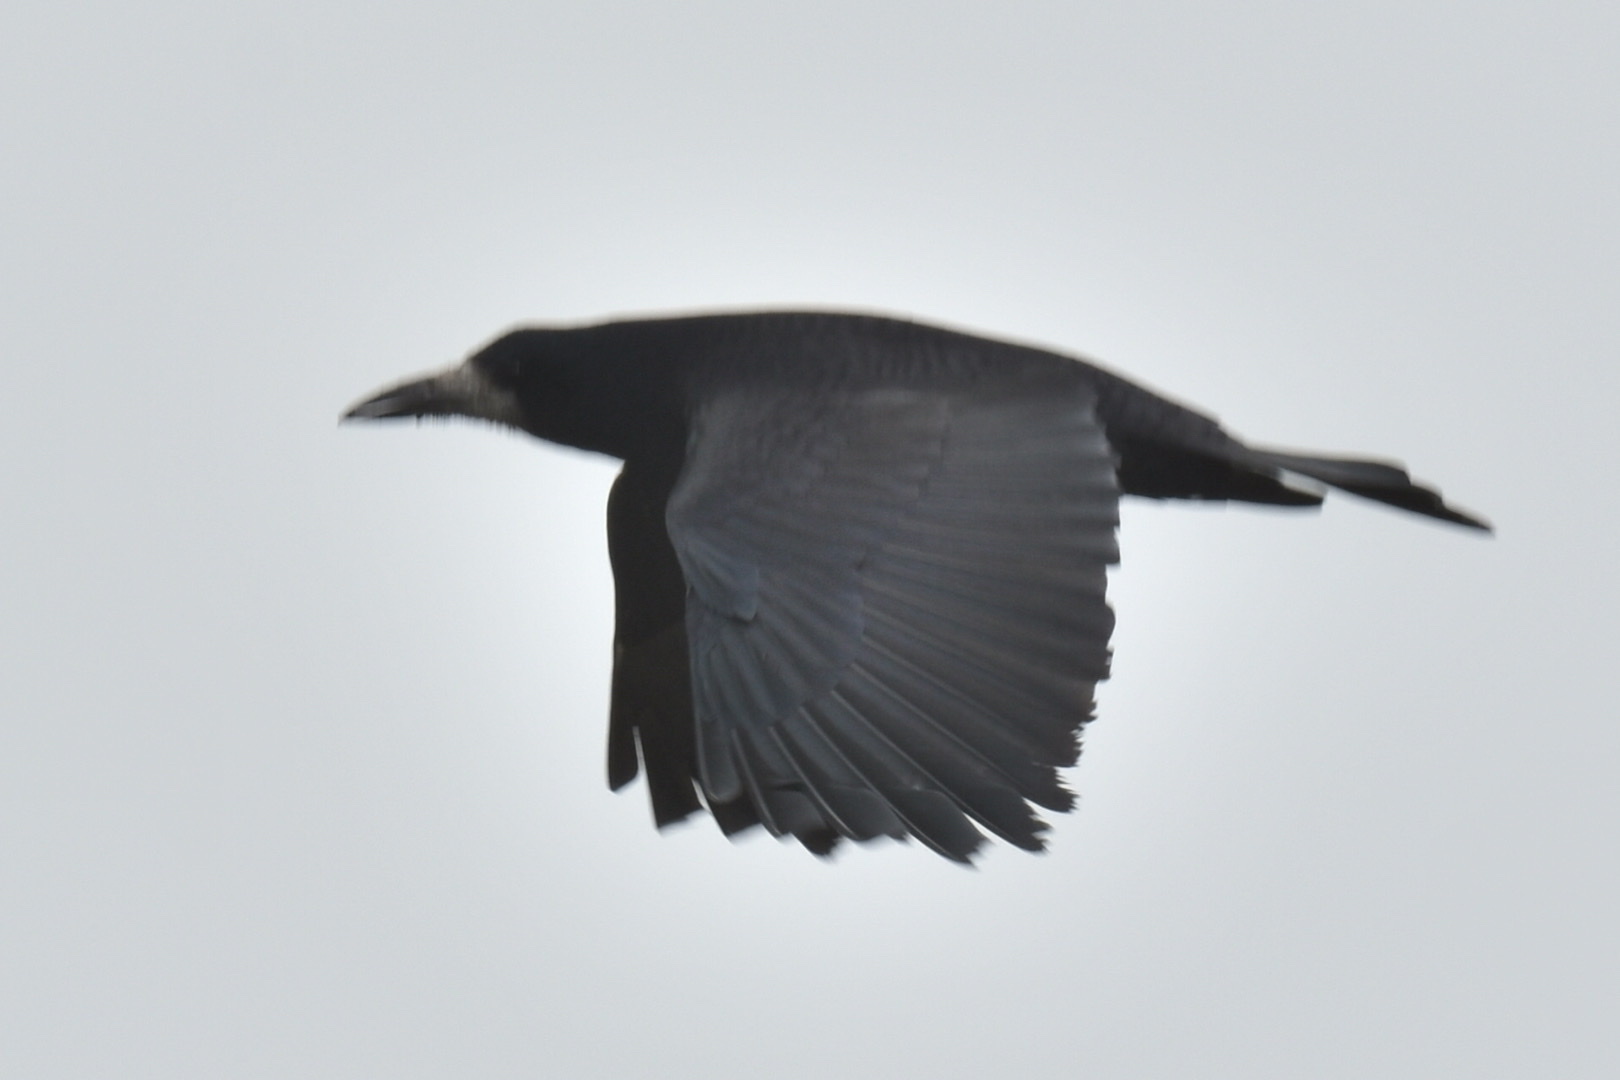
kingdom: Animalia
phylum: Chordata
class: Aves
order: Passeriformes
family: Corvidae
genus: Corvus
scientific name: Corvus frugilegus
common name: Rook
